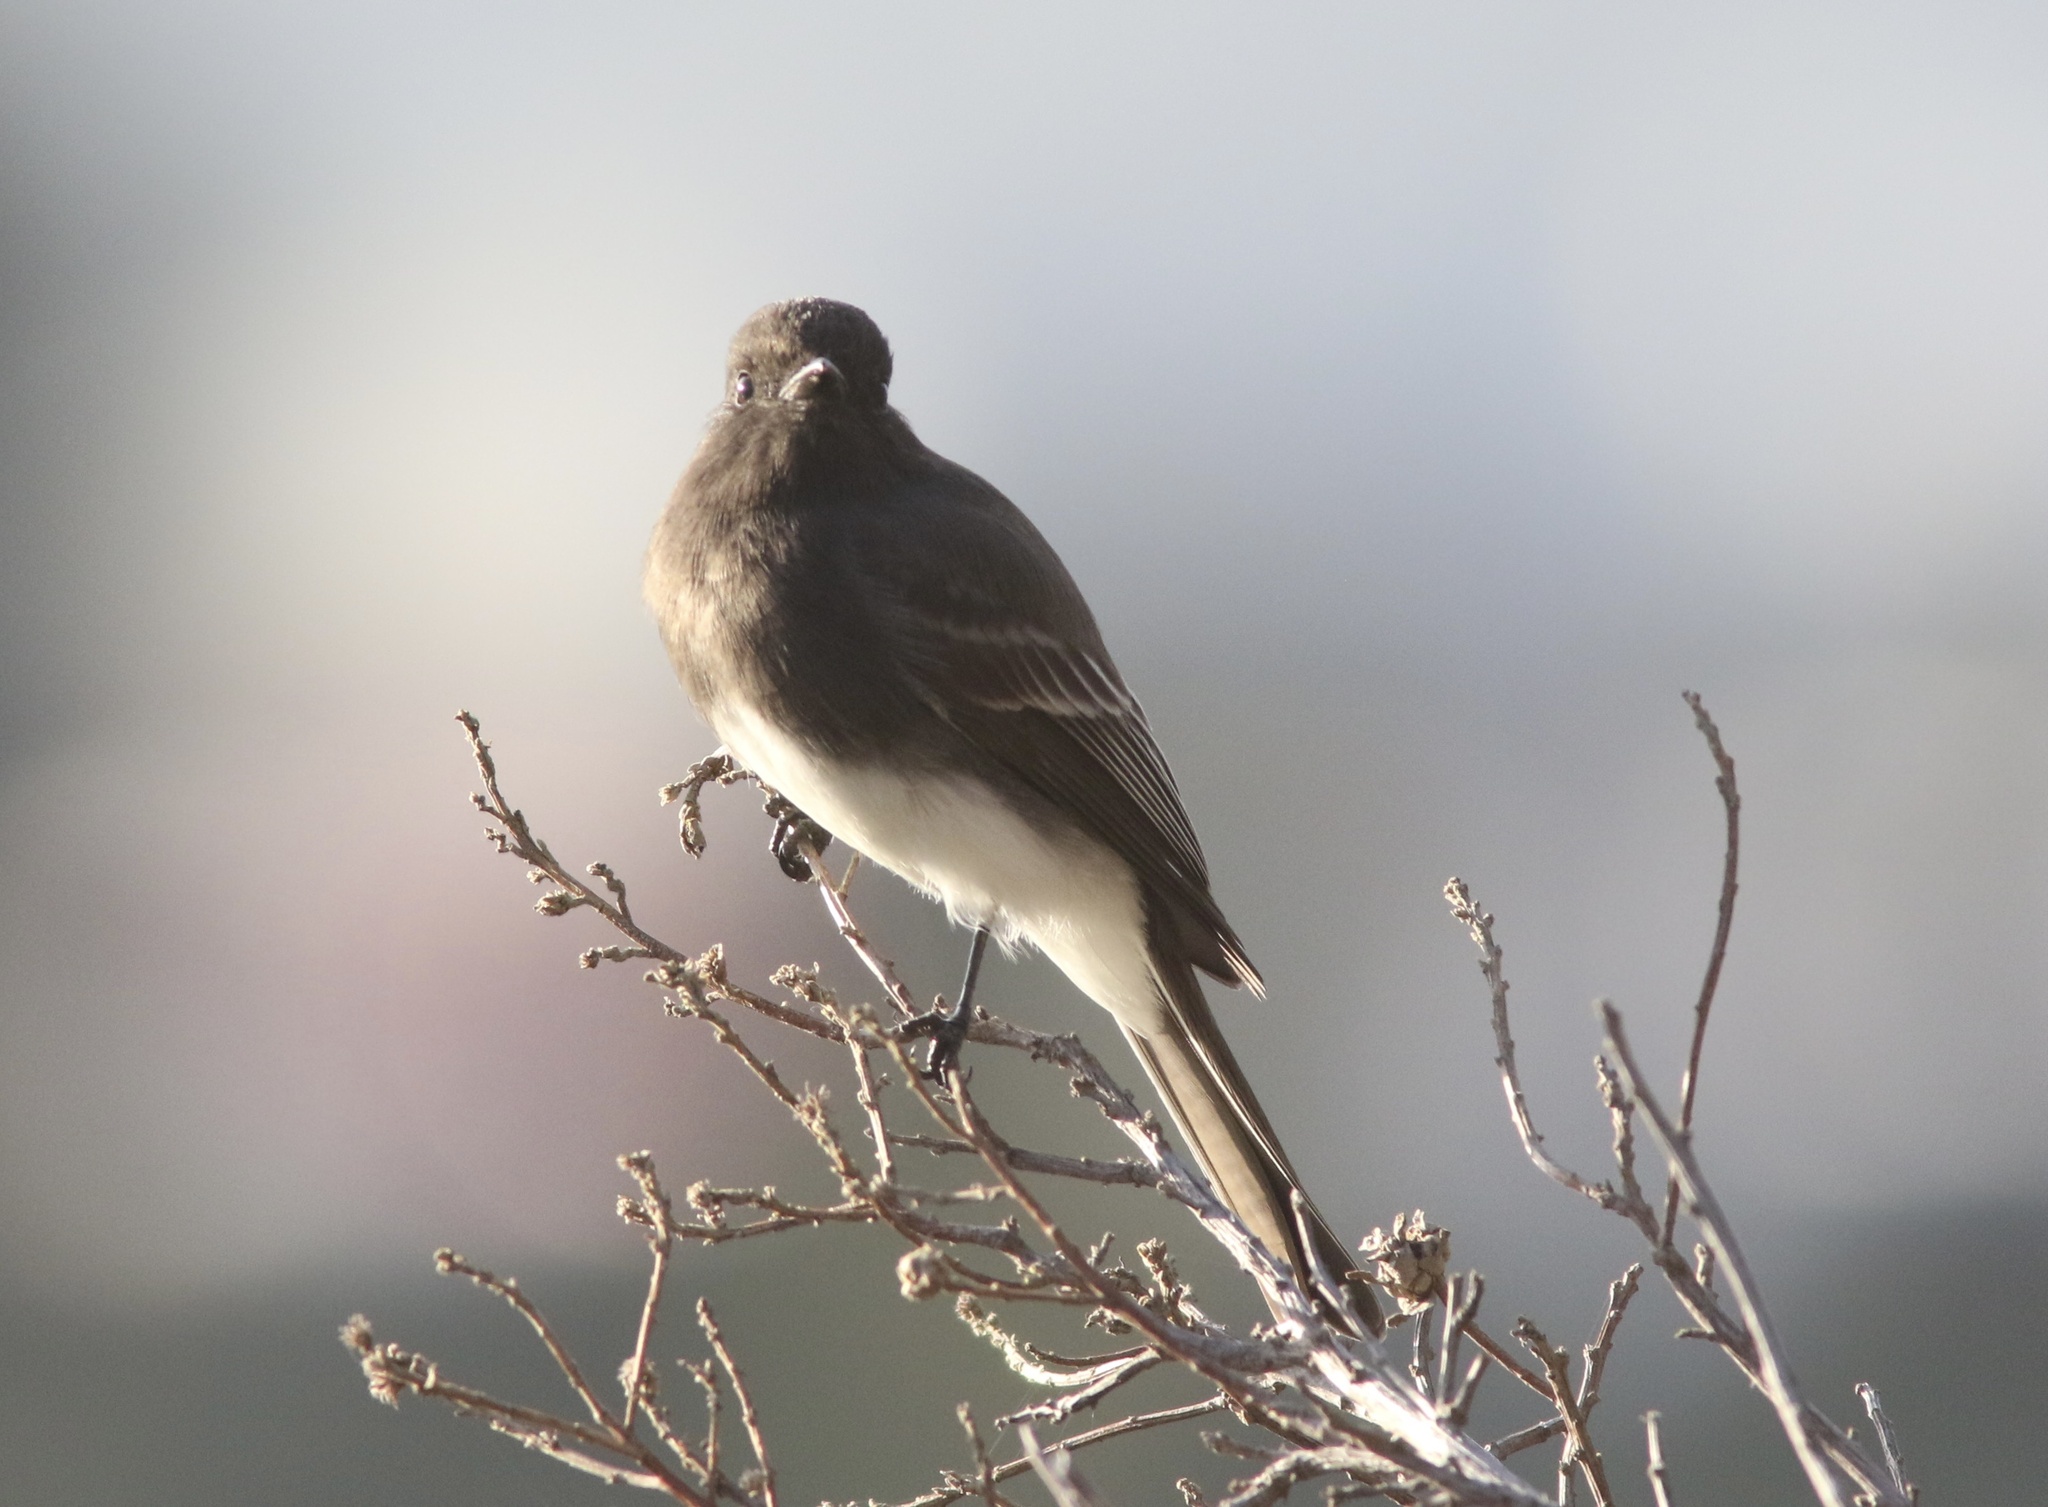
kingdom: Animalia
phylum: Chordata
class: Aves
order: Passeriformes
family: Tyrannidae
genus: Sayornis
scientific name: Sayornis nigricans
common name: Black phoebe
